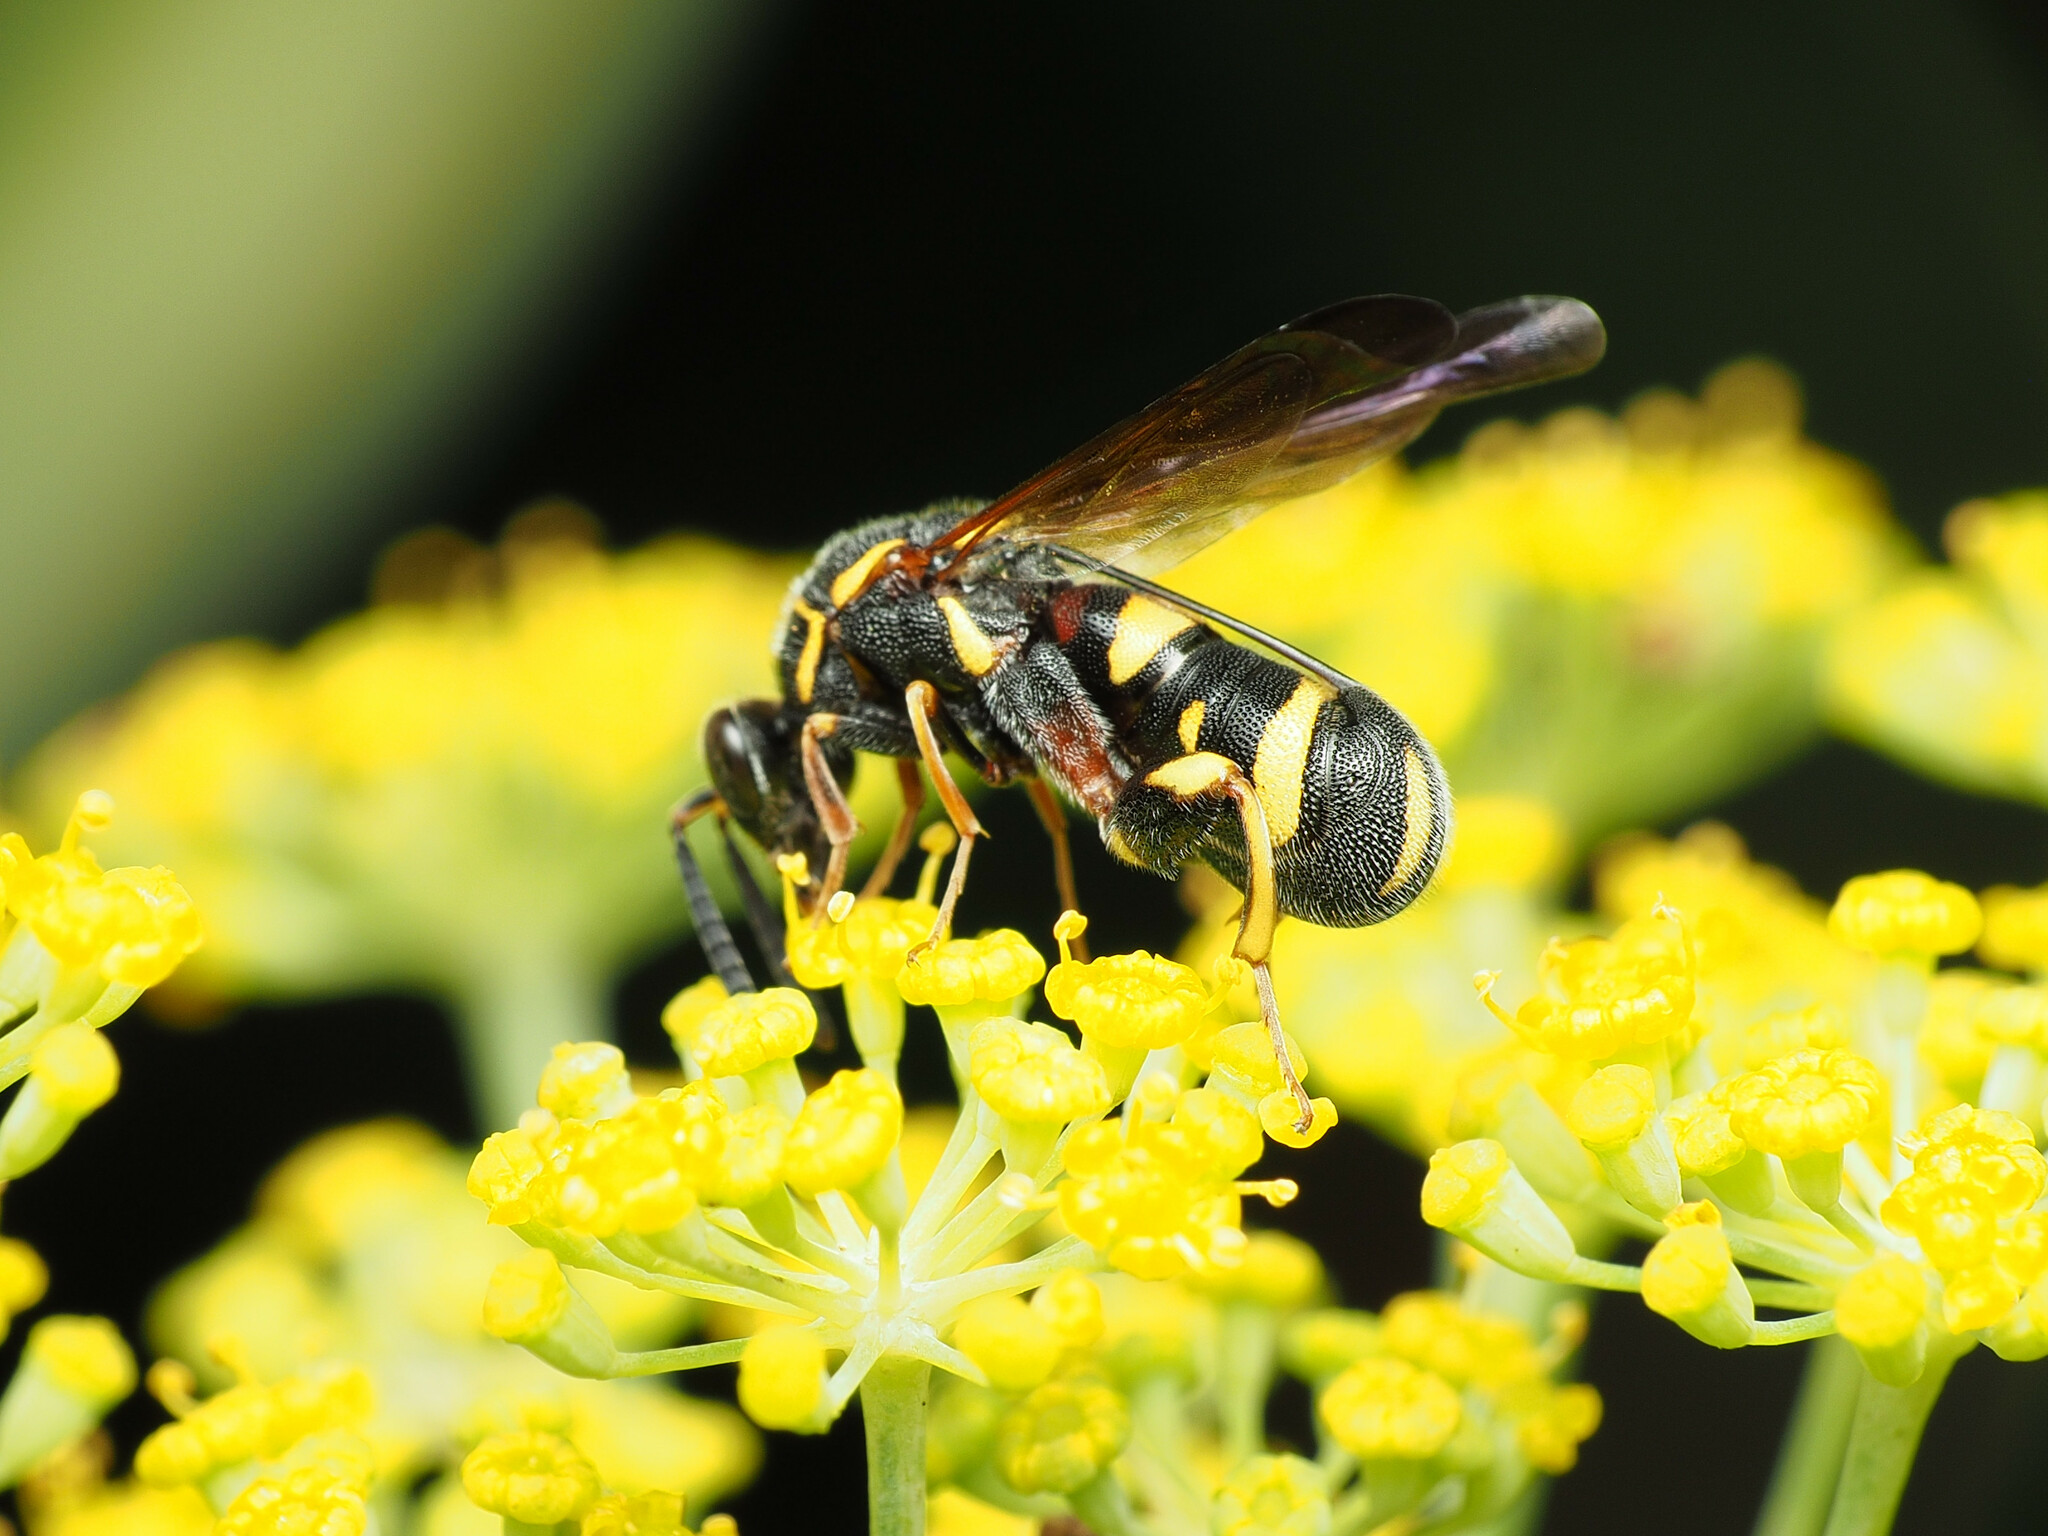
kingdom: Animalia
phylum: Arthropoda
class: Insecta
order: Hymenoptera
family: Leucospidae
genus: Leucospis
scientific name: Leucospis affinis
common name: Wasp
